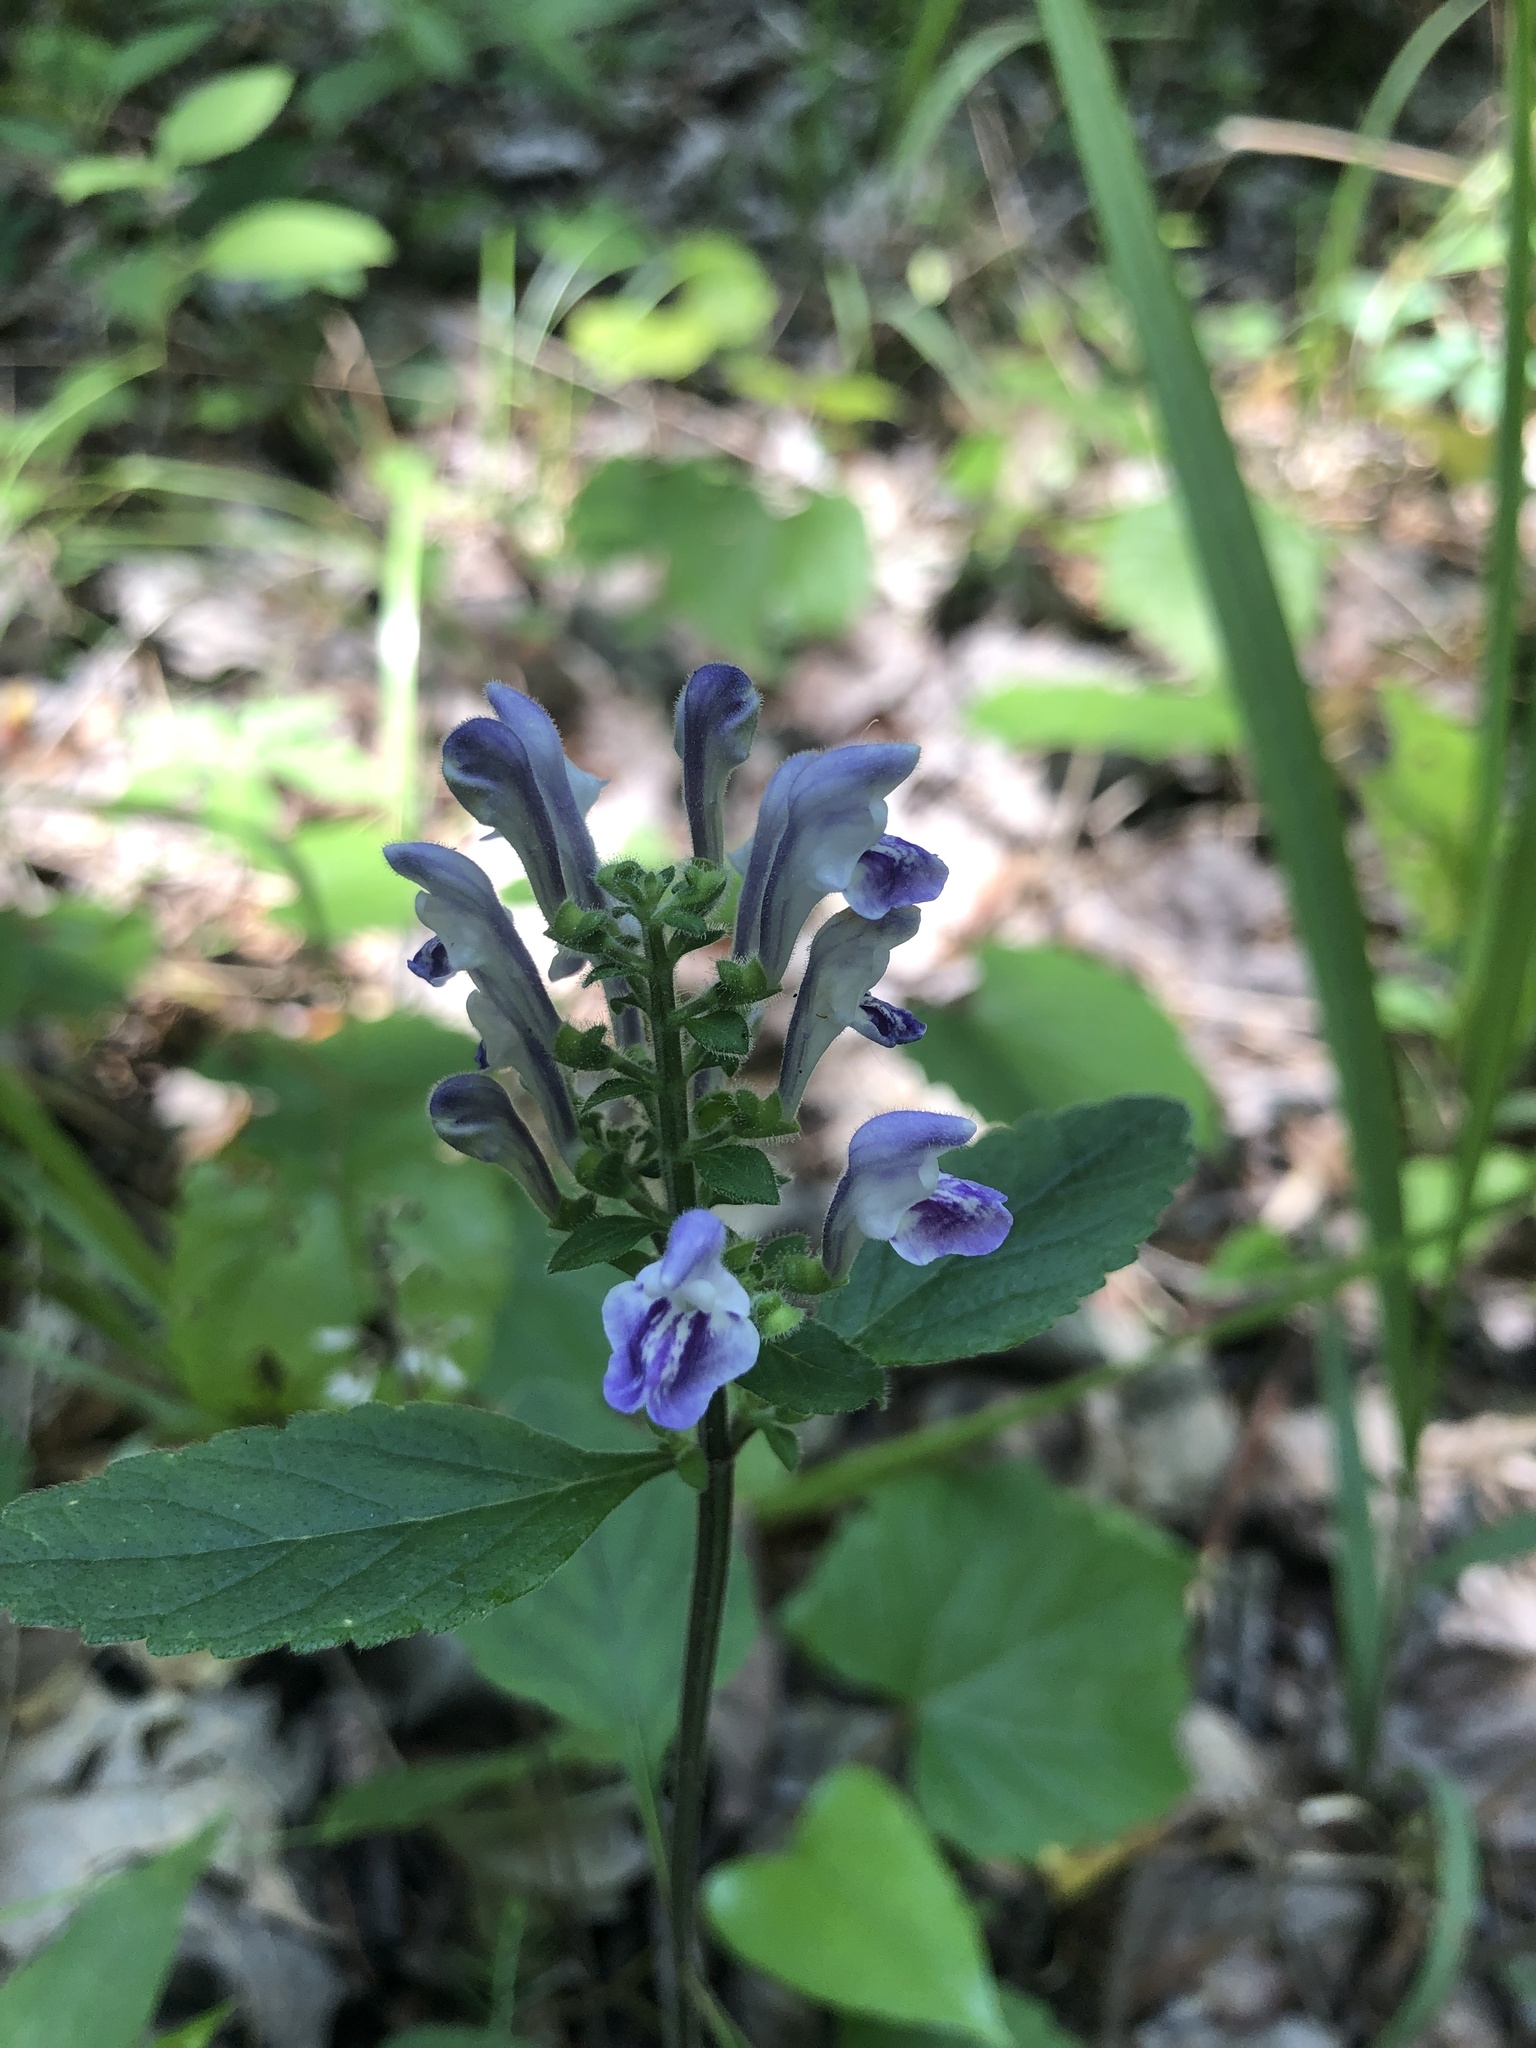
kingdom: Plantae
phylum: Tracheophyta
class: Magnoliopsida
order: Lamiales
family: Lamiaceae
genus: Scutellaria
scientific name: Scutellaria elliptica
